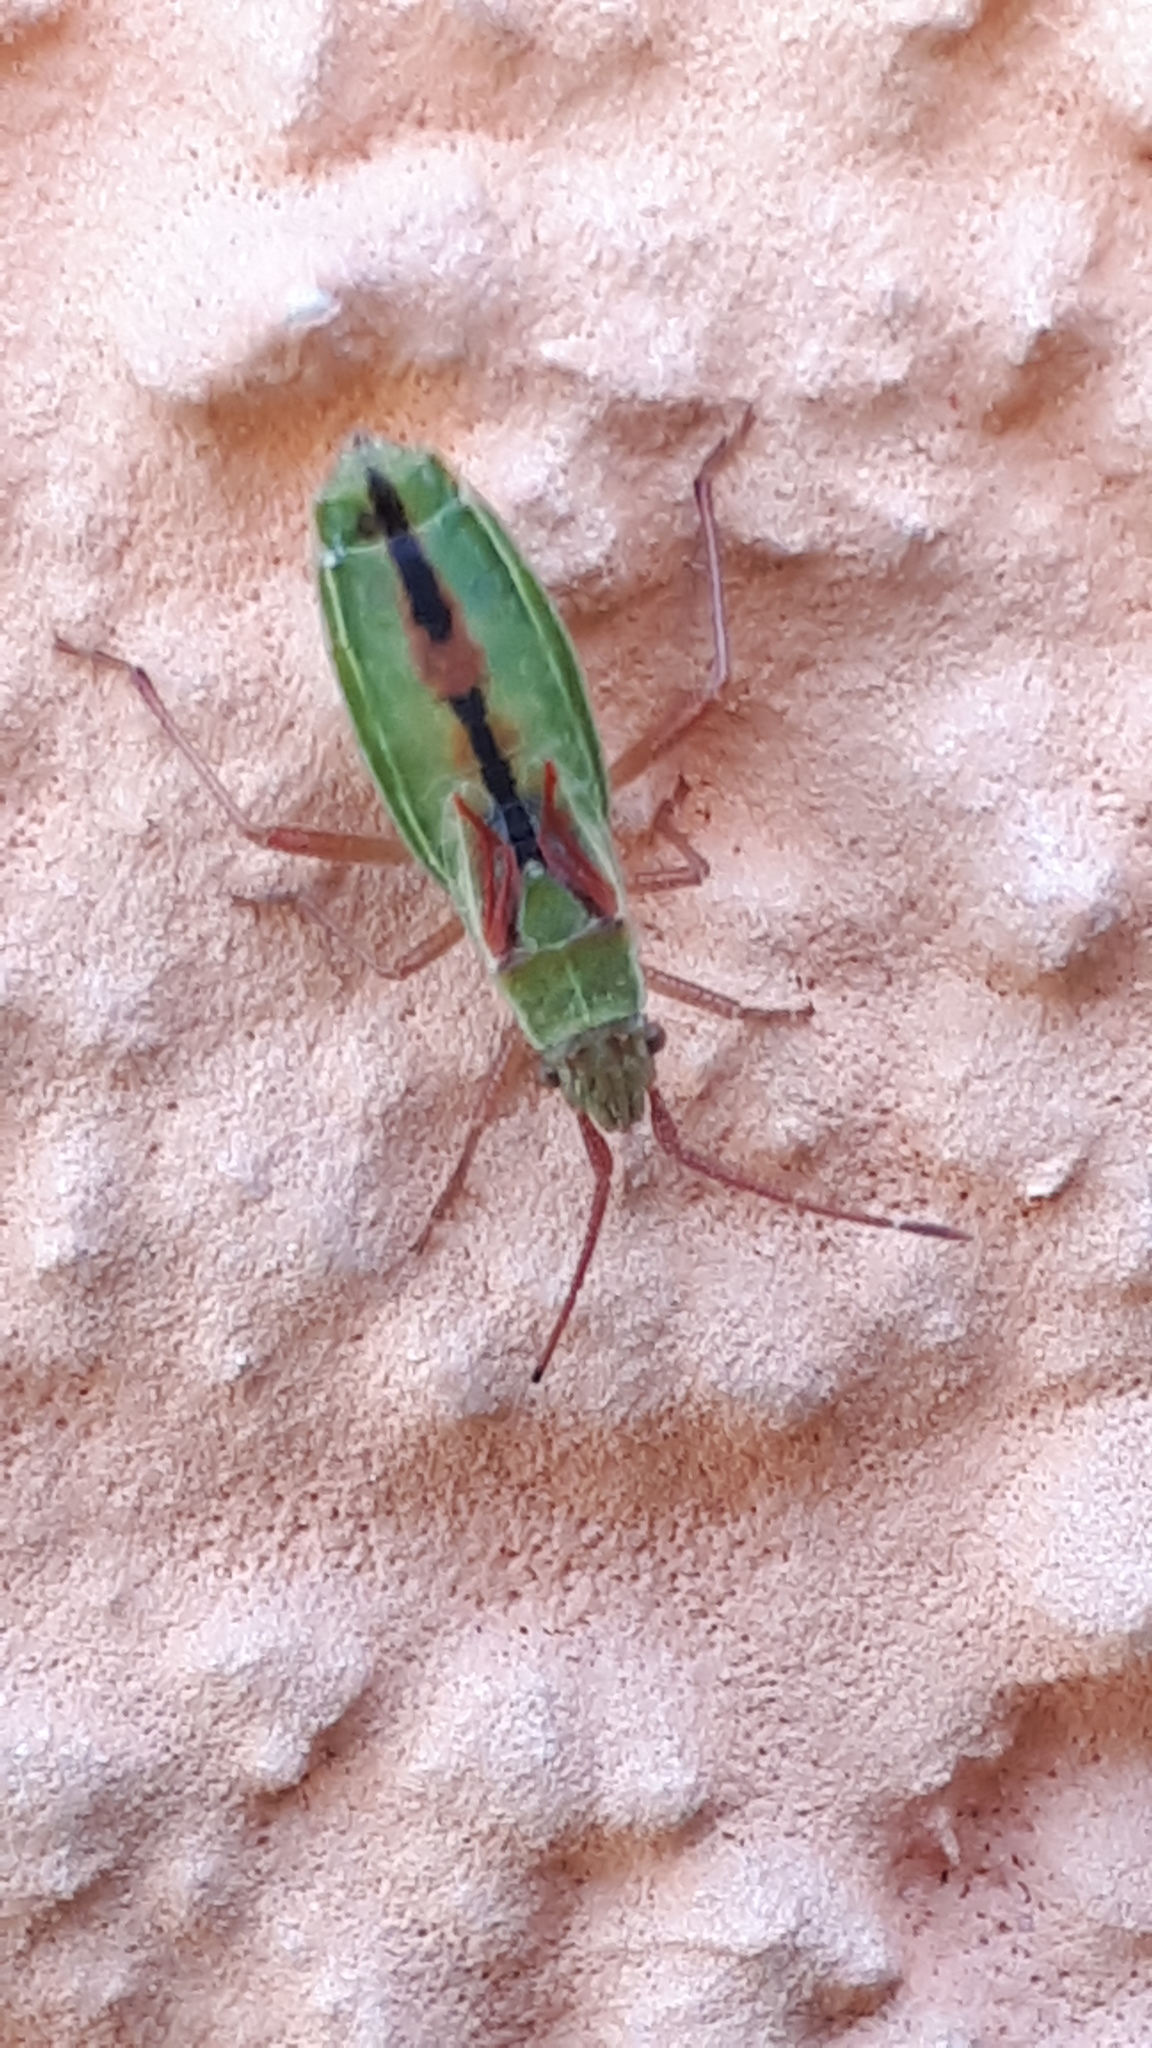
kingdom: Animalia
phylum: Arthropoda
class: Insecta
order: Hemiptera
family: Rhopalidae
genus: Myrmus
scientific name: Myrmus miriformis
